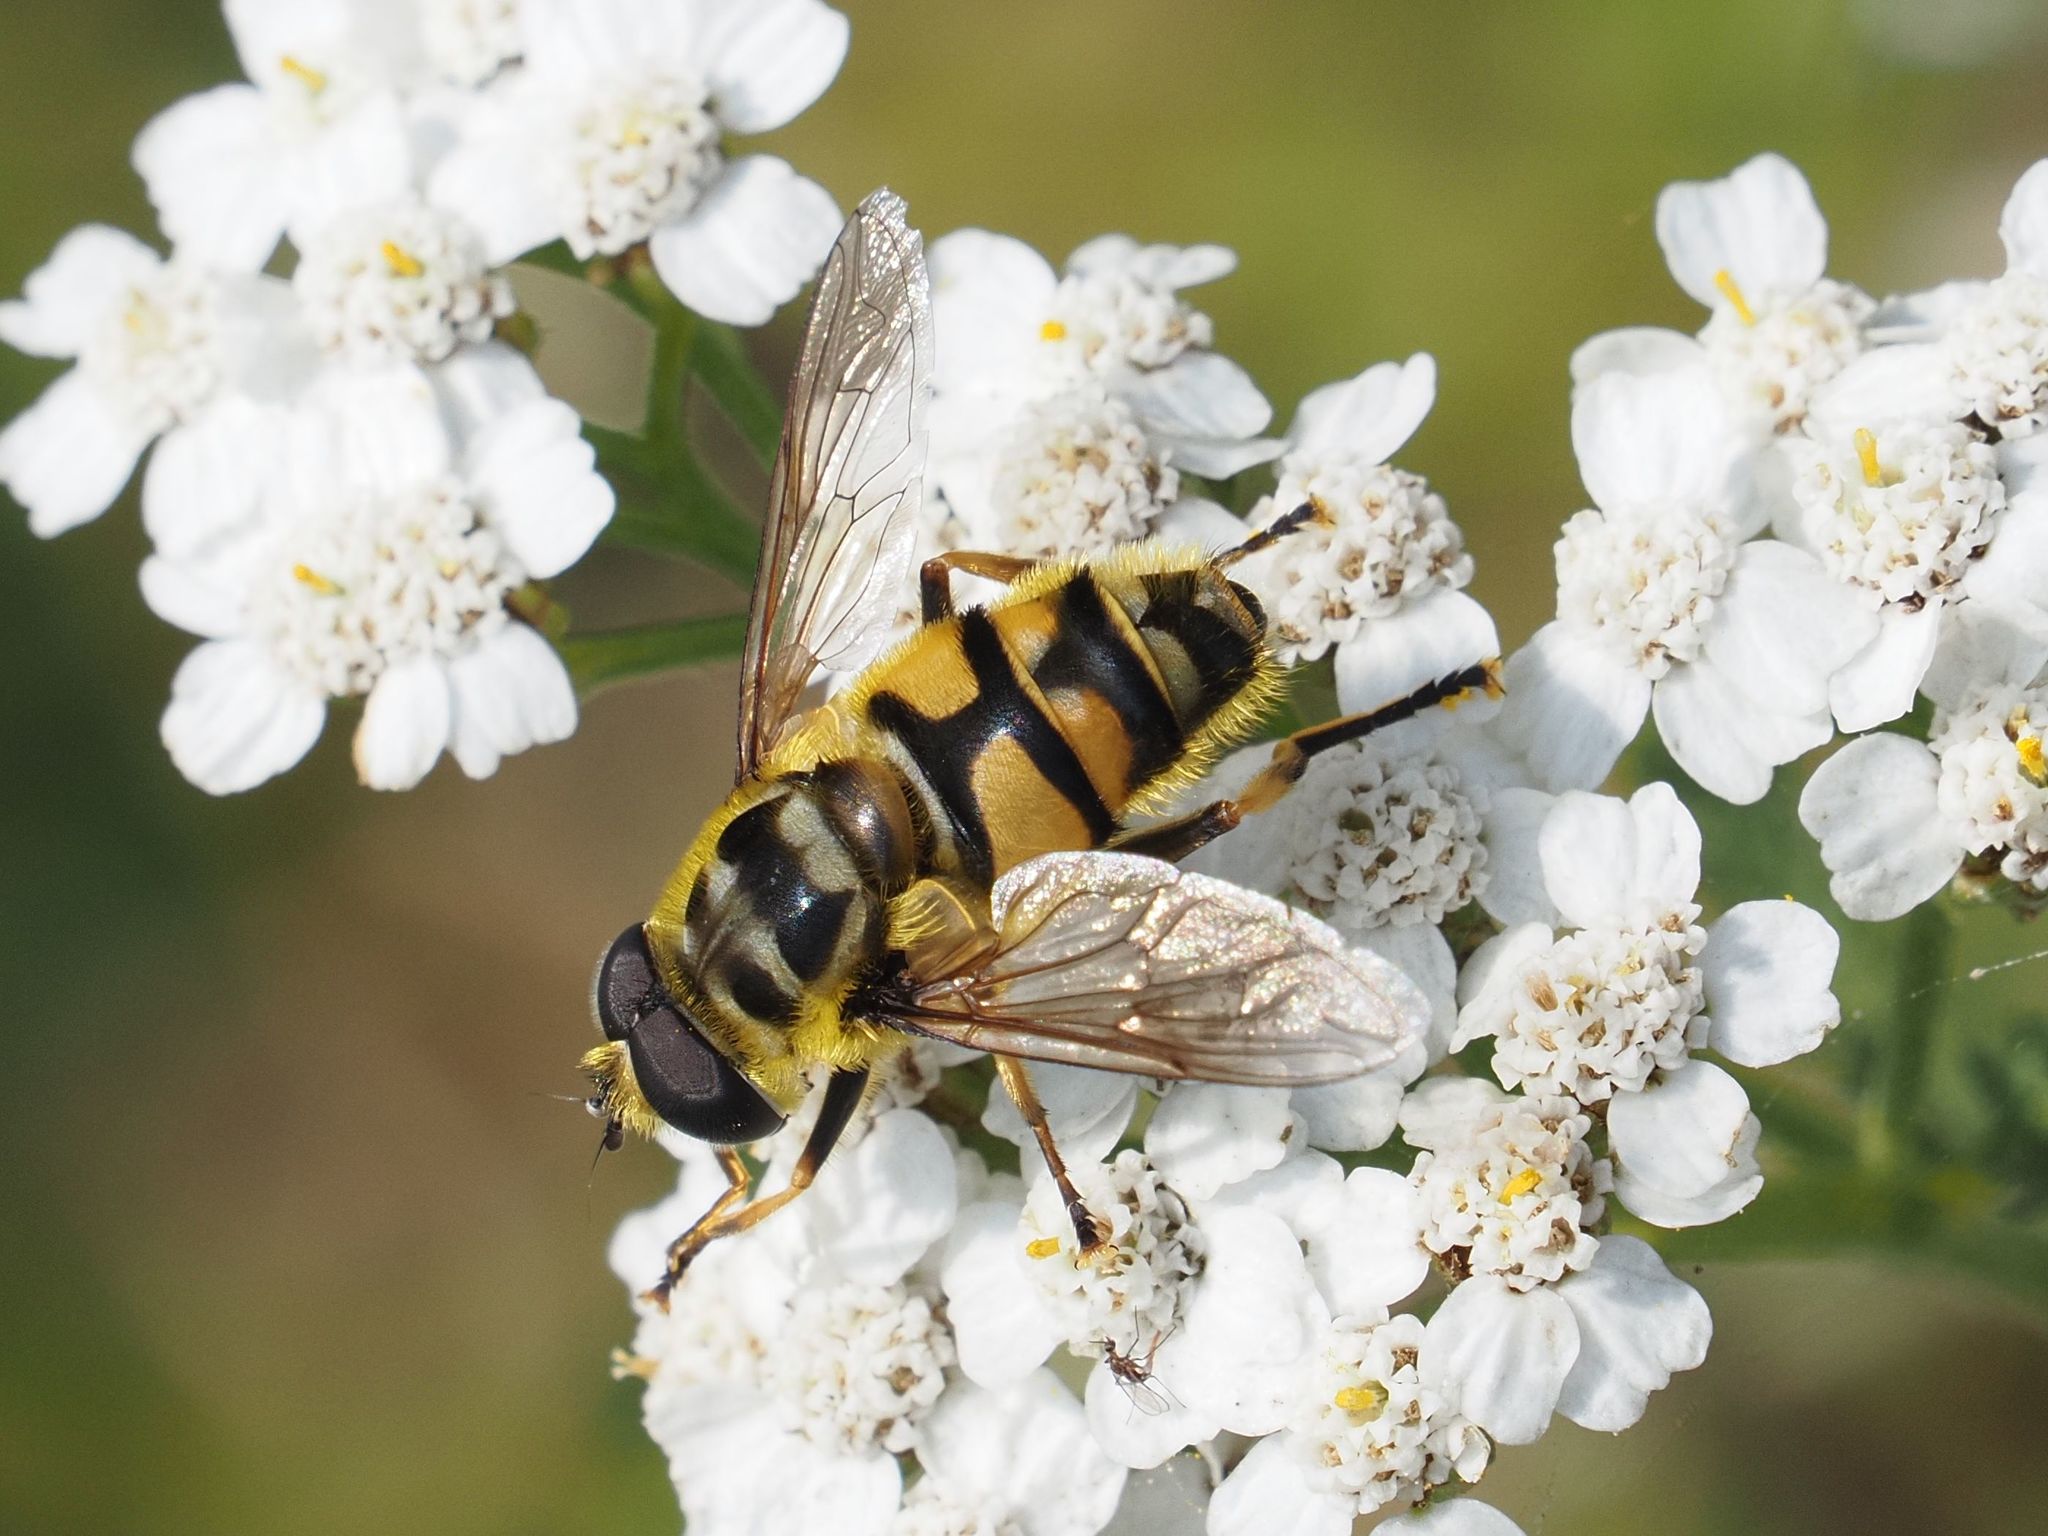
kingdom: Animalia
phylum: Arthropoda
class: Insecta
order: Diptera
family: Syrphidae
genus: Myathropa
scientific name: Myathropa florea
